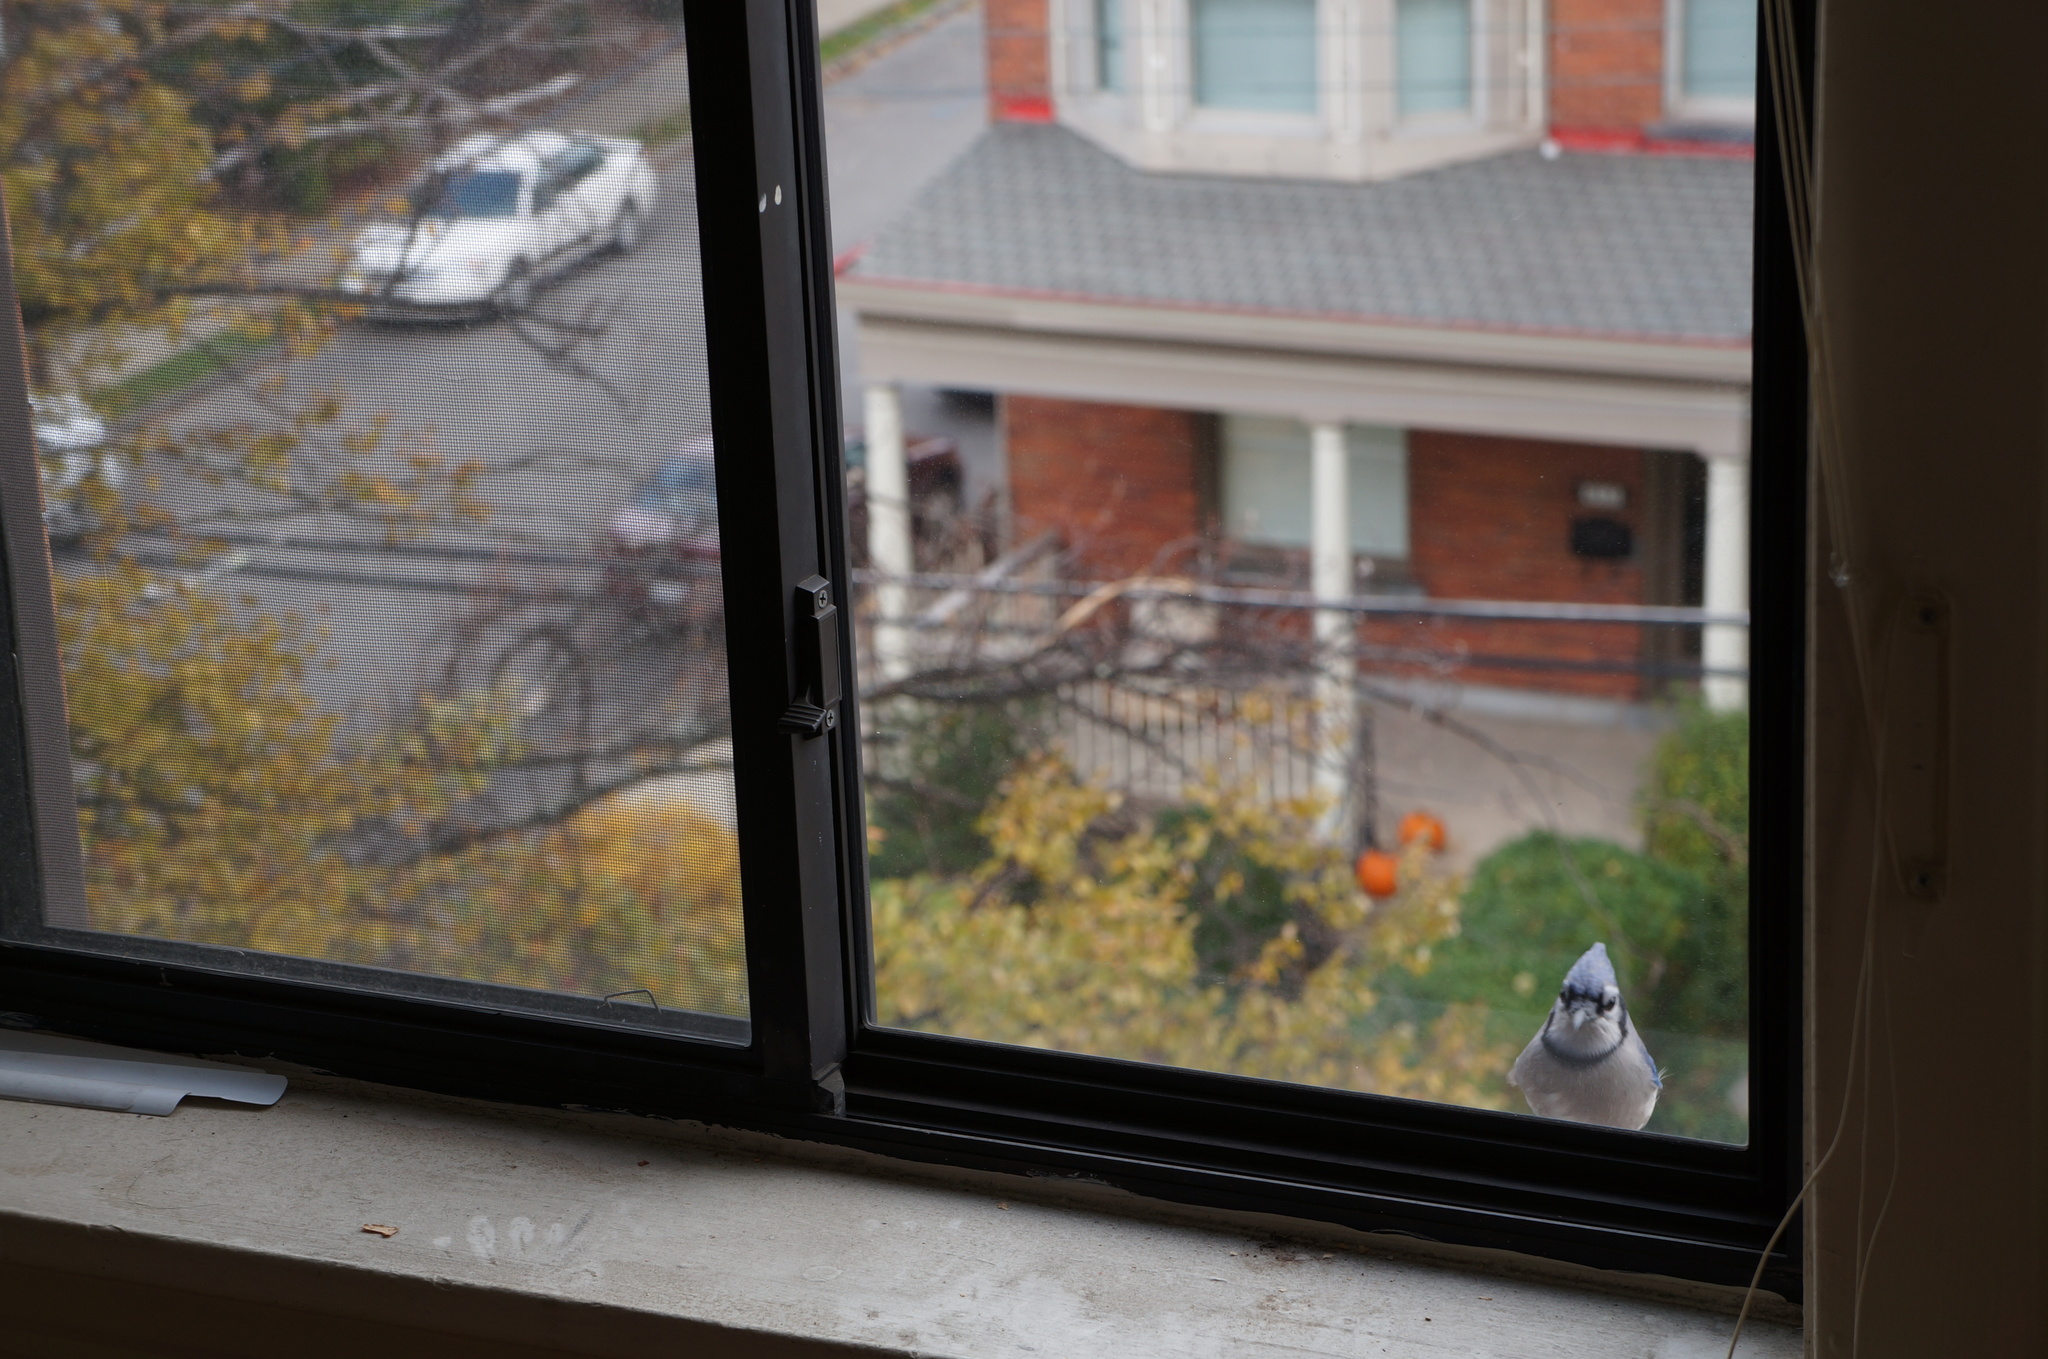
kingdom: Animalia
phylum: Chordata
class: Aves
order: Passeriformes
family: Corvidae
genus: Cyanocitta
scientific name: Cyanocitta cristata
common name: Blue jay
